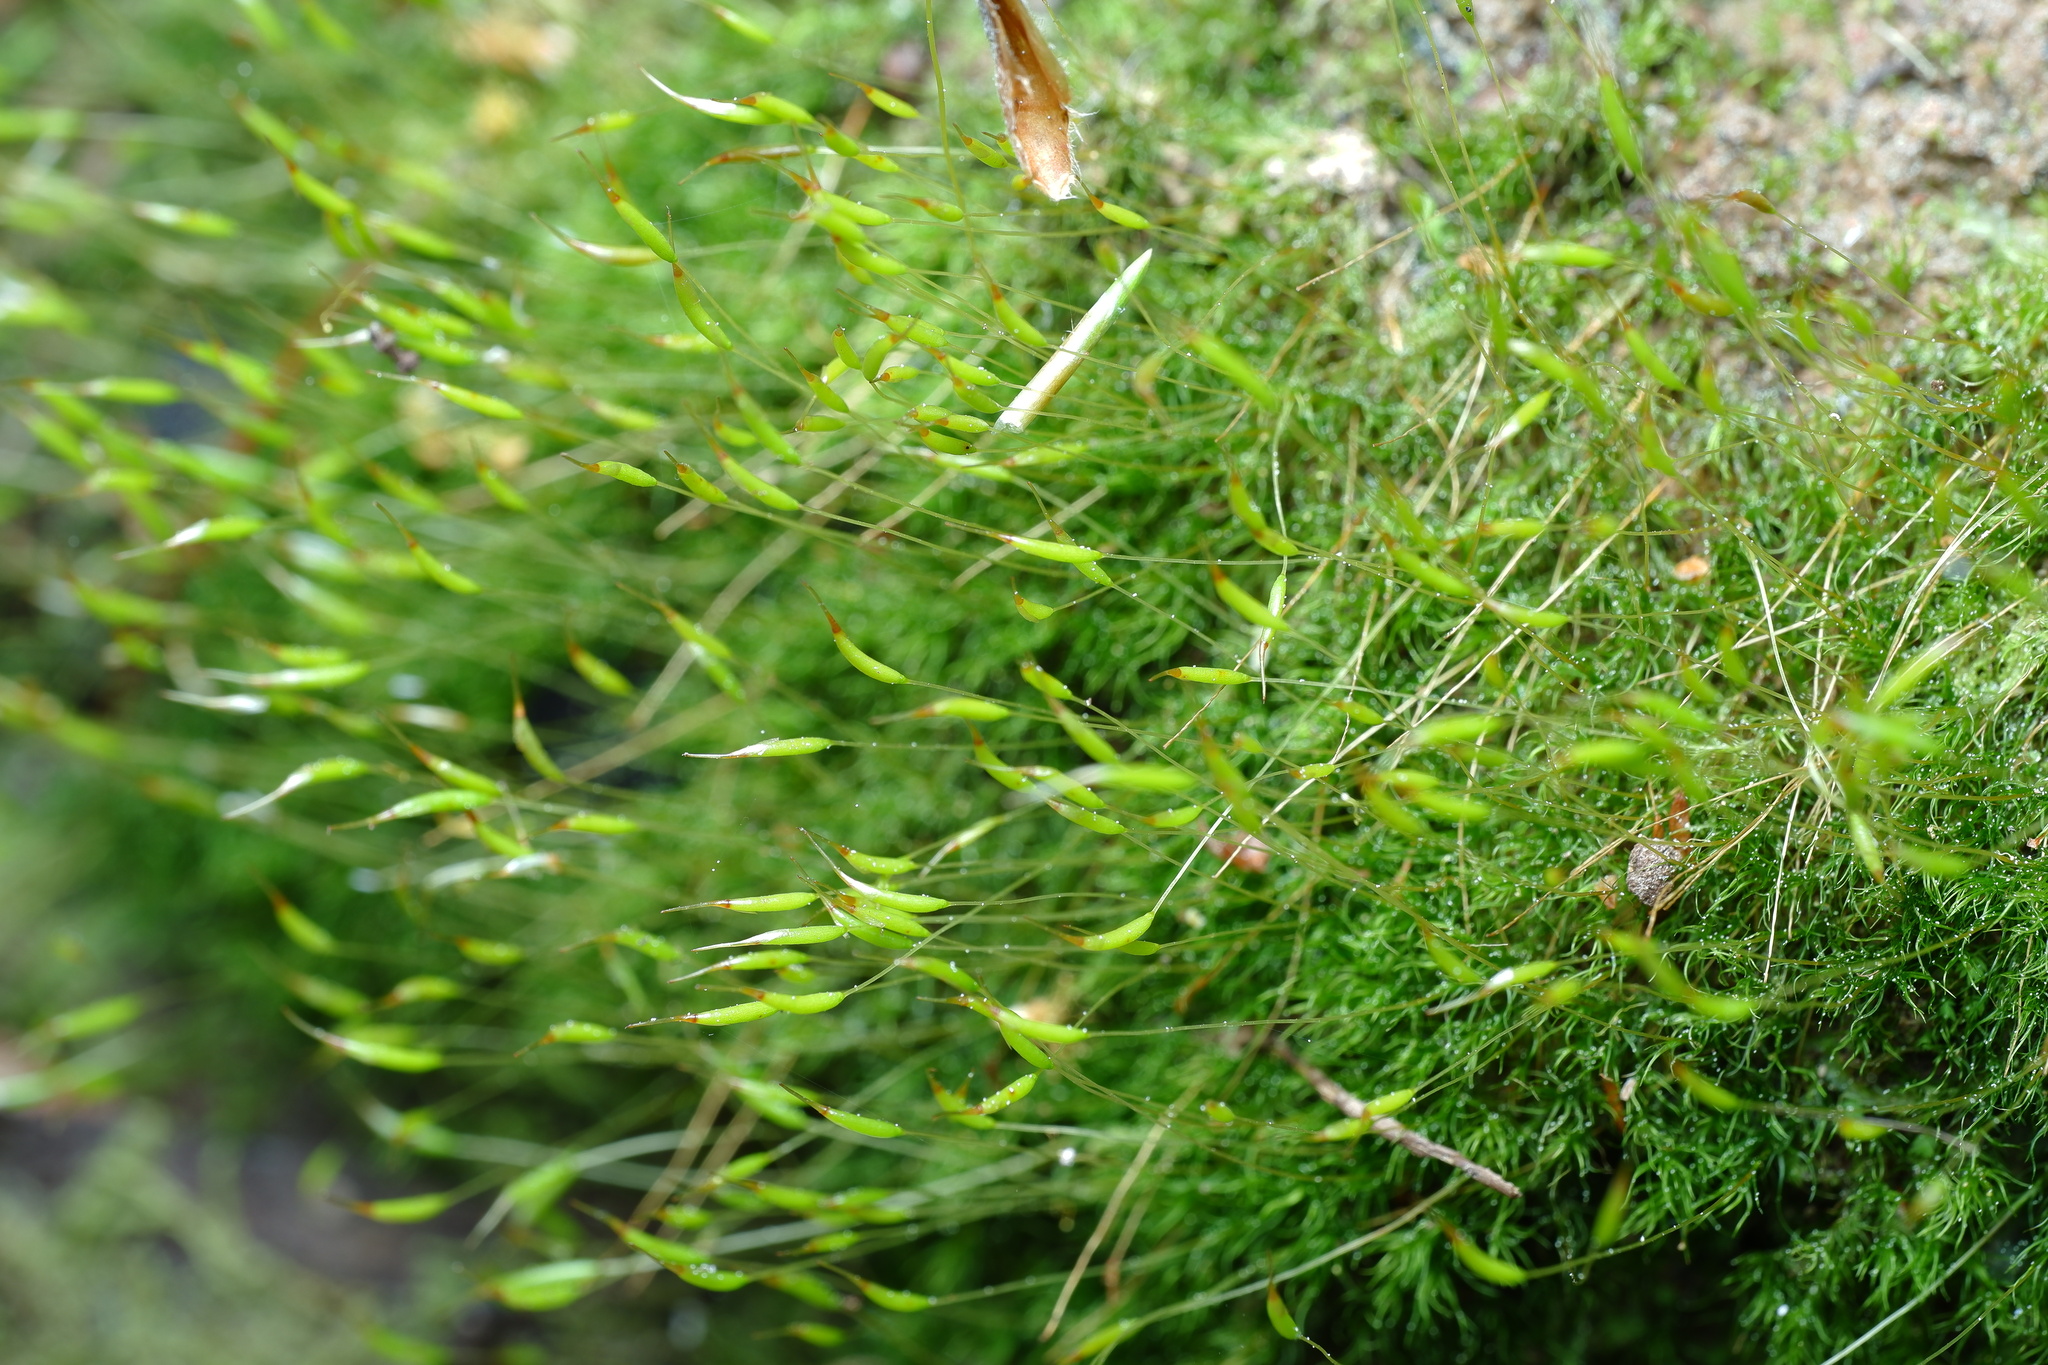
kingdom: Plantae
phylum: Bryophyta
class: Bryopsida
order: Dicranales
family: Ditrichaceae
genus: Ditrichum
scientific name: Ditrichum difficile
